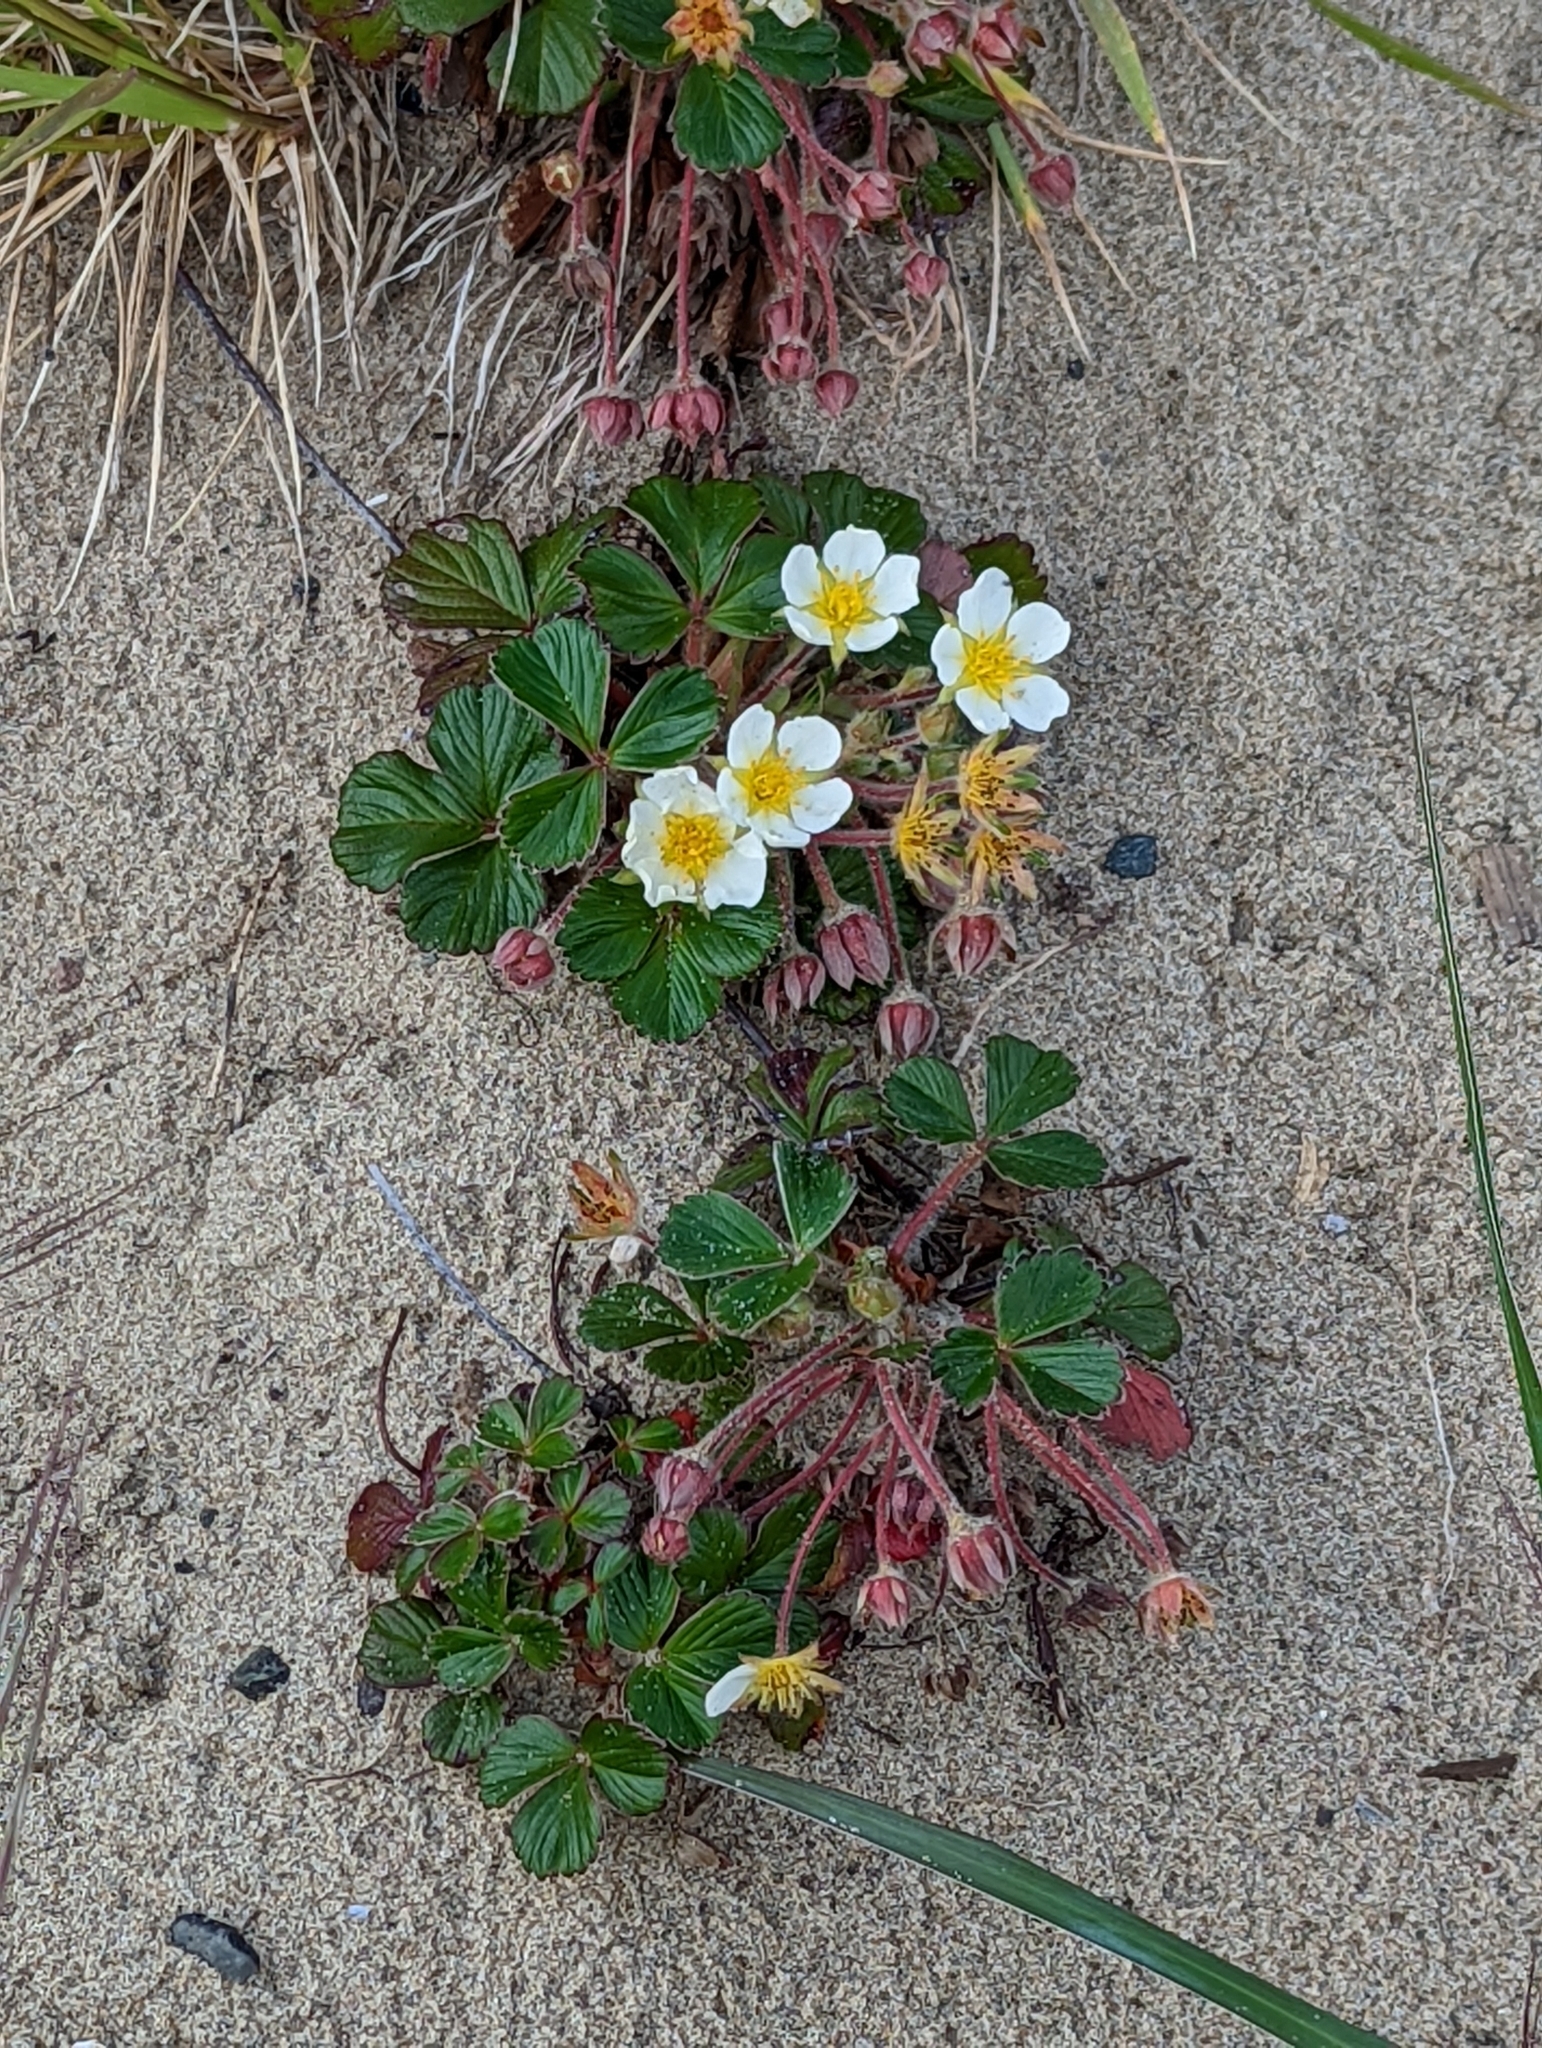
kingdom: Plantae
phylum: Tracheophyta
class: Magnoliopsida
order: Rosales
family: Rosaceae
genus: Fragaria
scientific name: Fragaria chiloensis
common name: Beach strawberry
